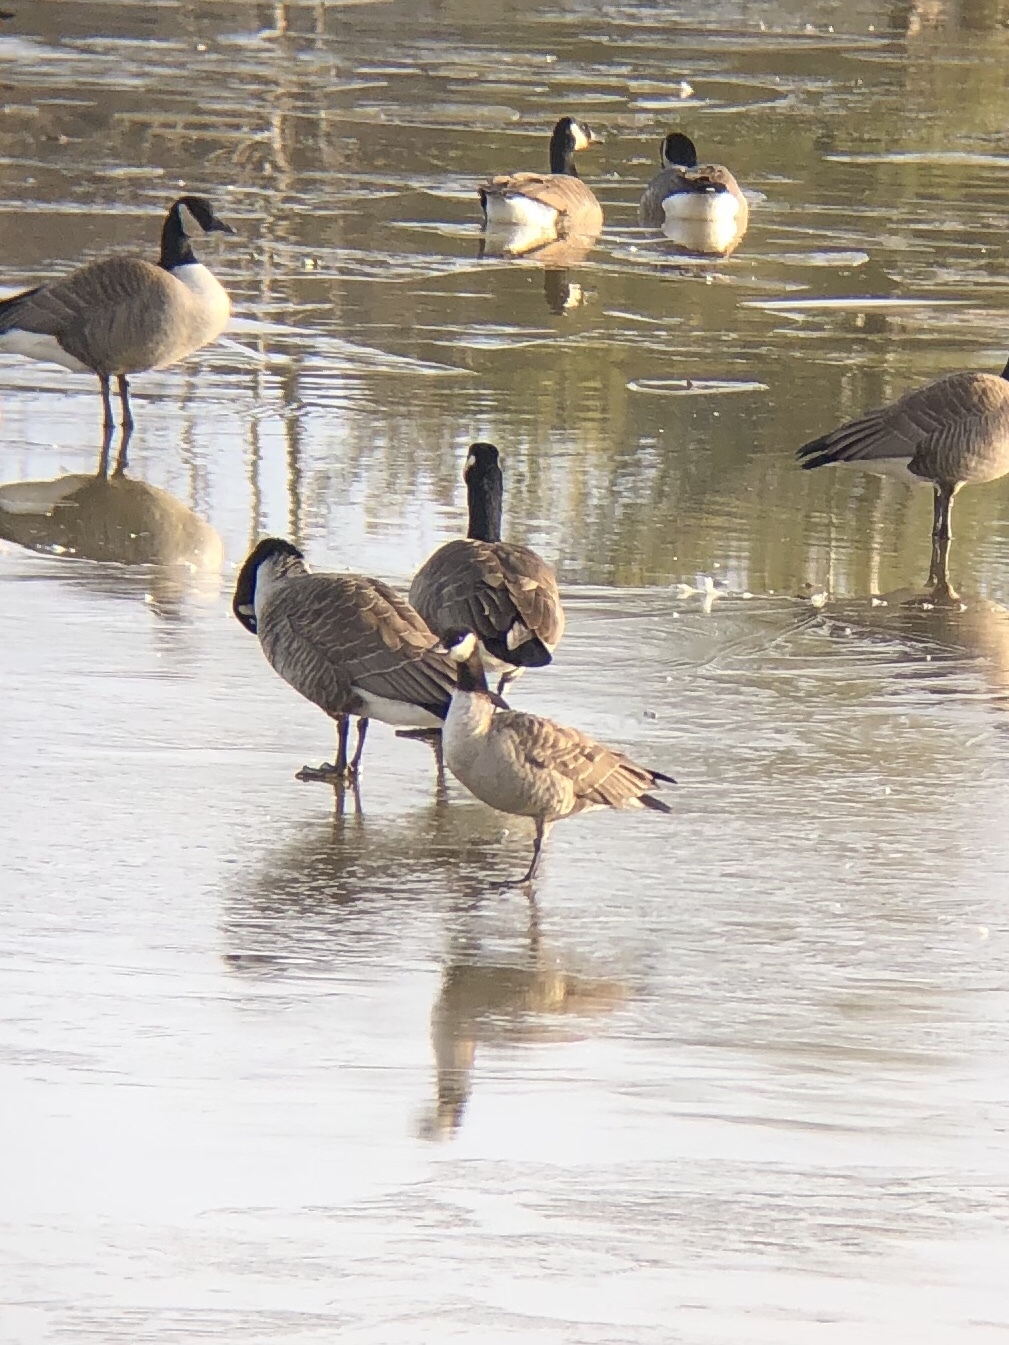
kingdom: Animalia
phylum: Chordata
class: Aves
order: Anseriformes
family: Anatidae
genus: Branta
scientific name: Branta hutchinsii
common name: Cackling goose
